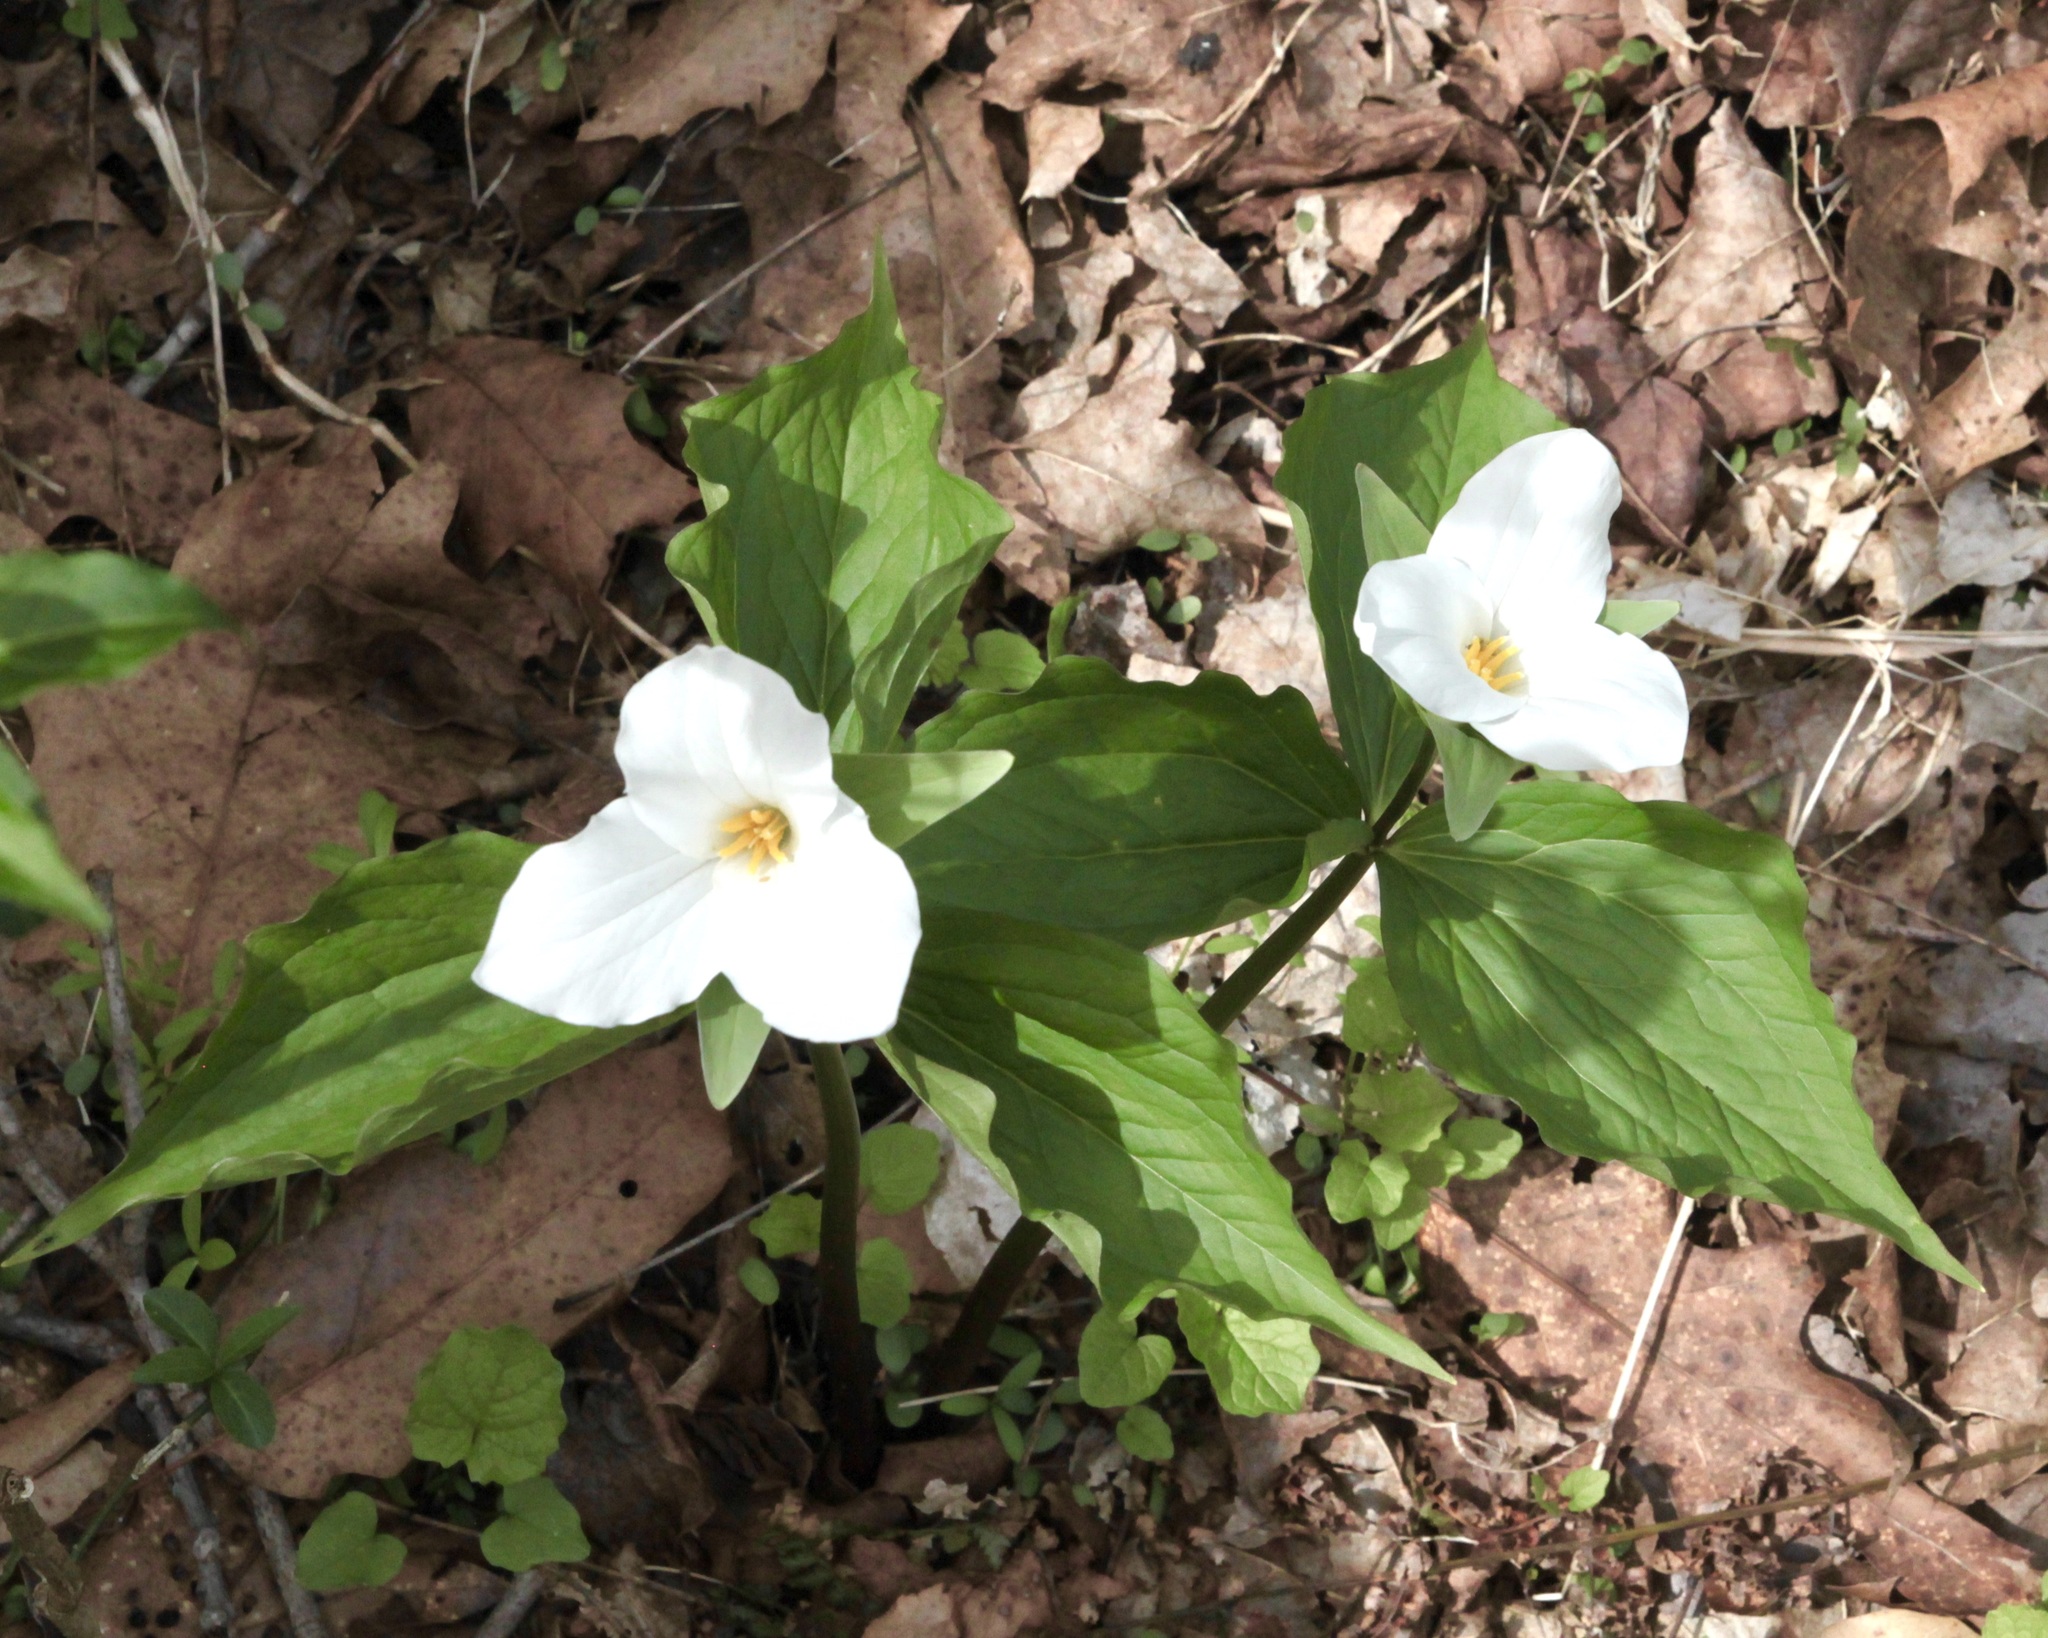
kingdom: Plantae
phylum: Tracheophyta
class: Liliopsida
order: Liliales
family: Melanthiaceae
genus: Trillium
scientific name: Trillium grandiflorum
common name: Great white trillium
